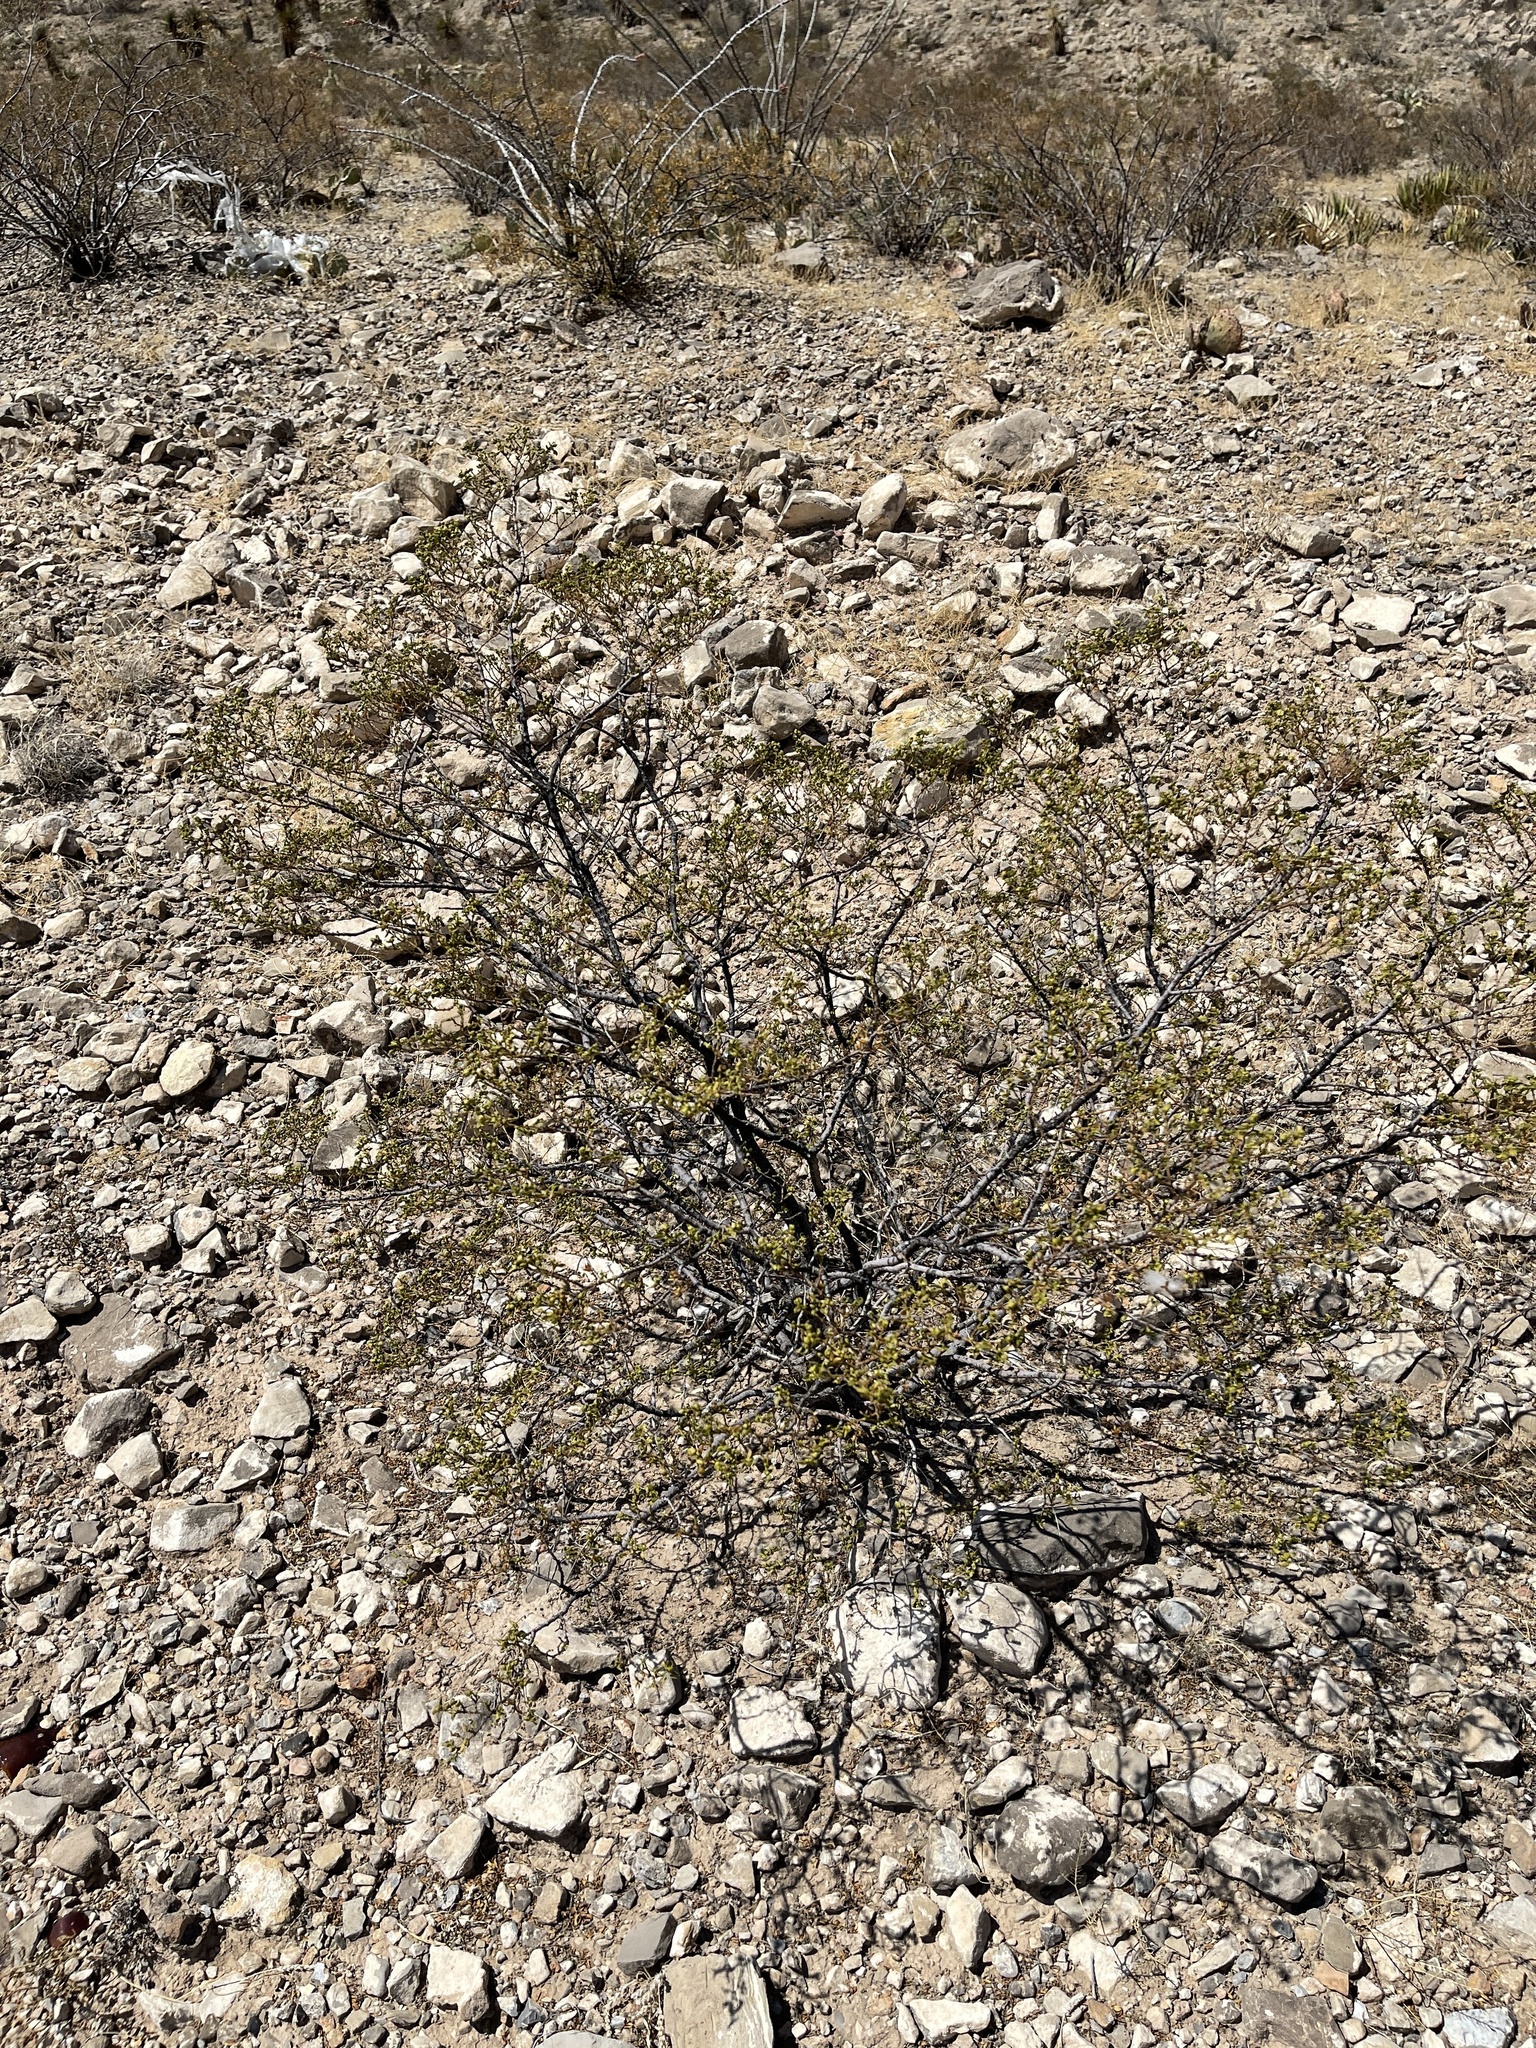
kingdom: Plantae
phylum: Tracheophyta
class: Magnoliopsida
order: Zygophyllales
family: Zygophyllaceae
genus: Larrea
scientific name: Larrea tridentata
